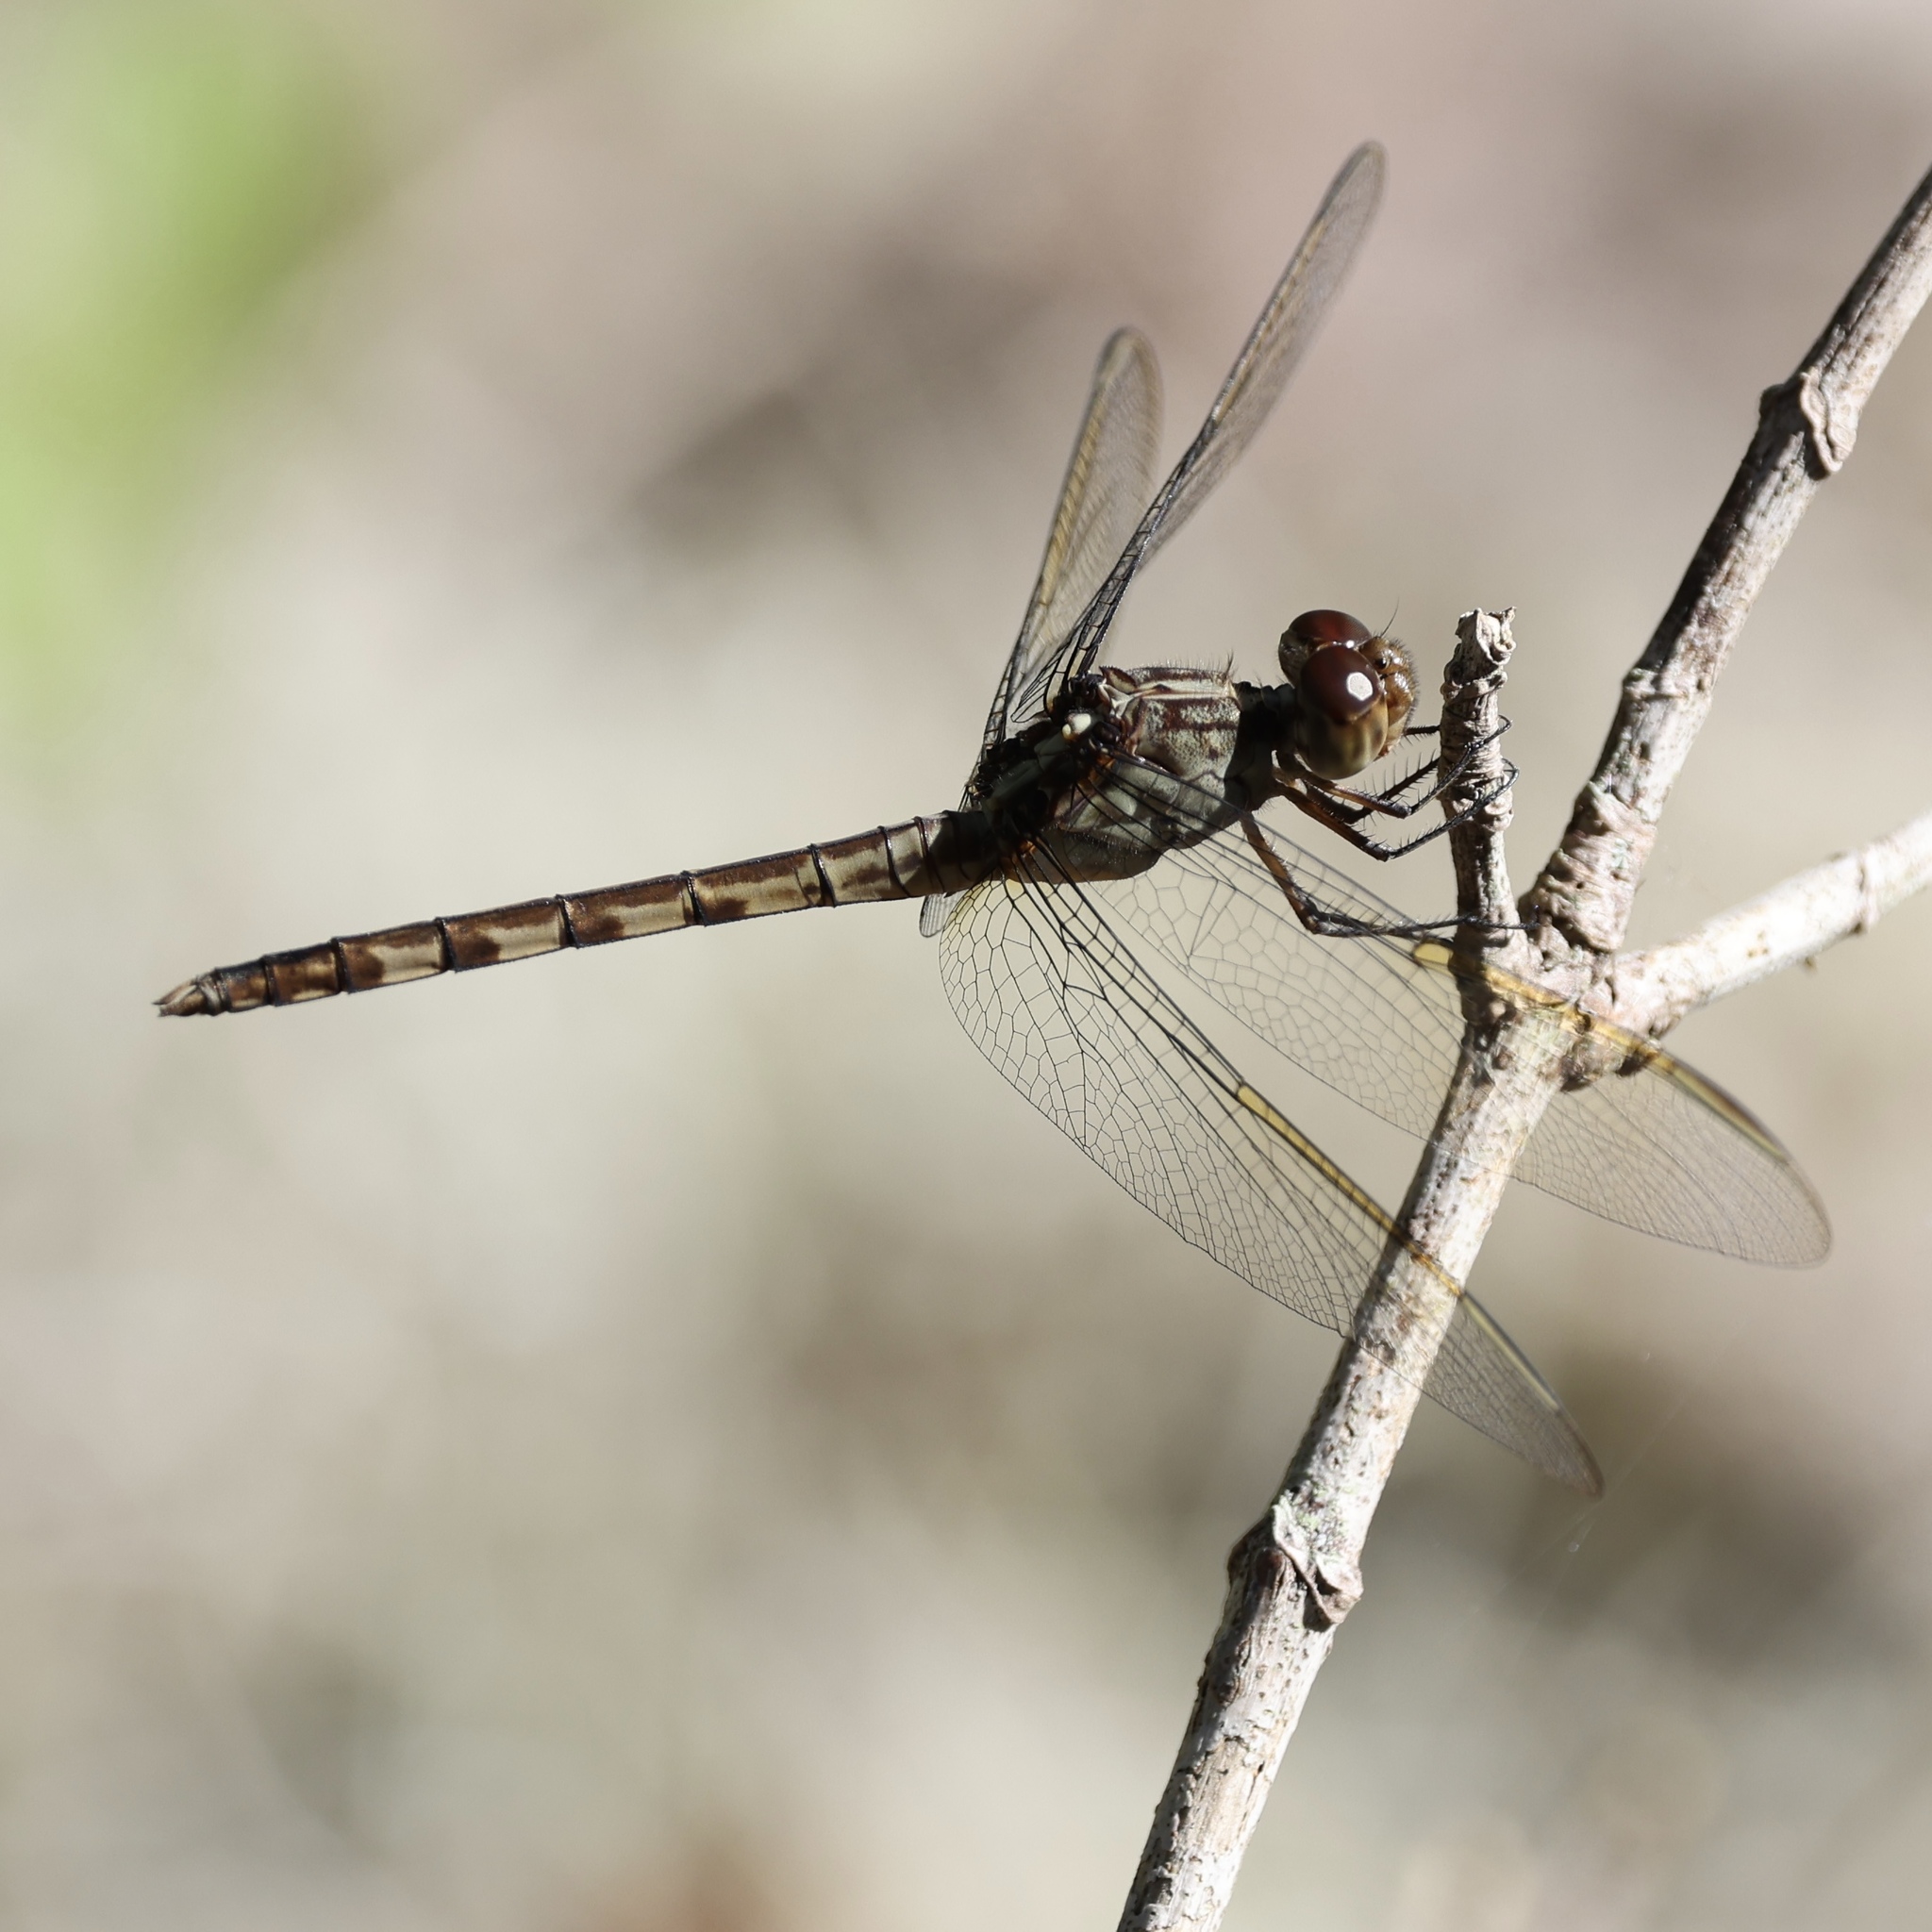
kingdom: Animalia
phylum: Arthropoda
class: Insecta
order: Odonata
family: Libellulidae
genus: Erythrodiplax
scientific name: Erythrodiplax umbrata
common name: Band-winged dragonlet
